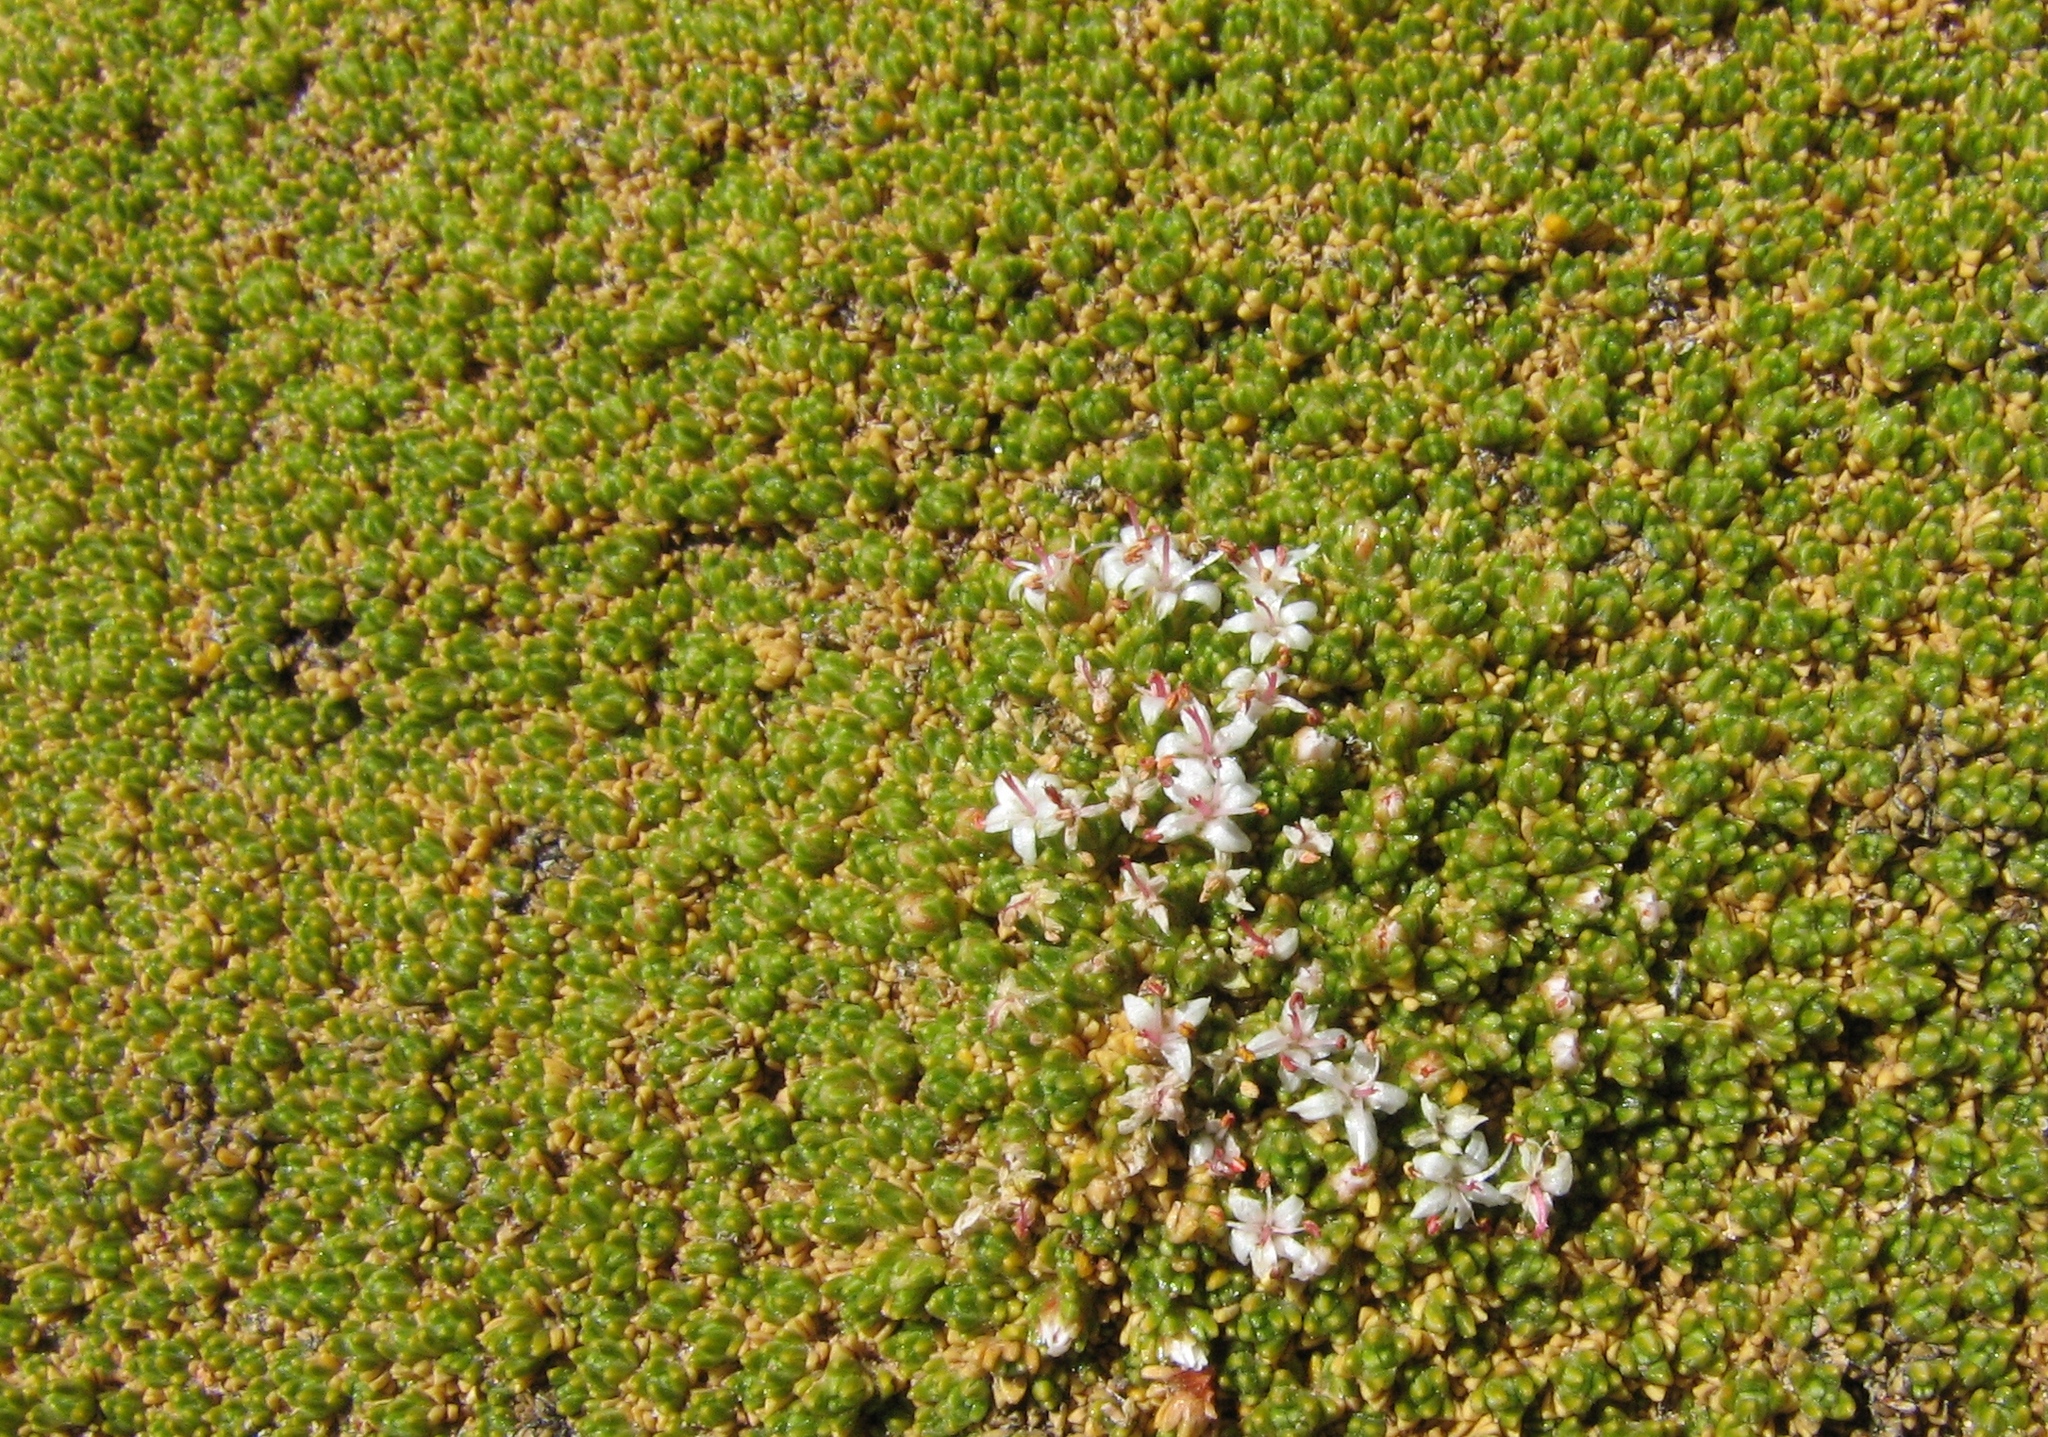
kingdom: Plantae
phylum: Tracheophyta
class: Magnoliopsida
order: Caryophyllales
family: Frankeniaceae
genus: Frankenia
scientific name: Frankenia triandra
